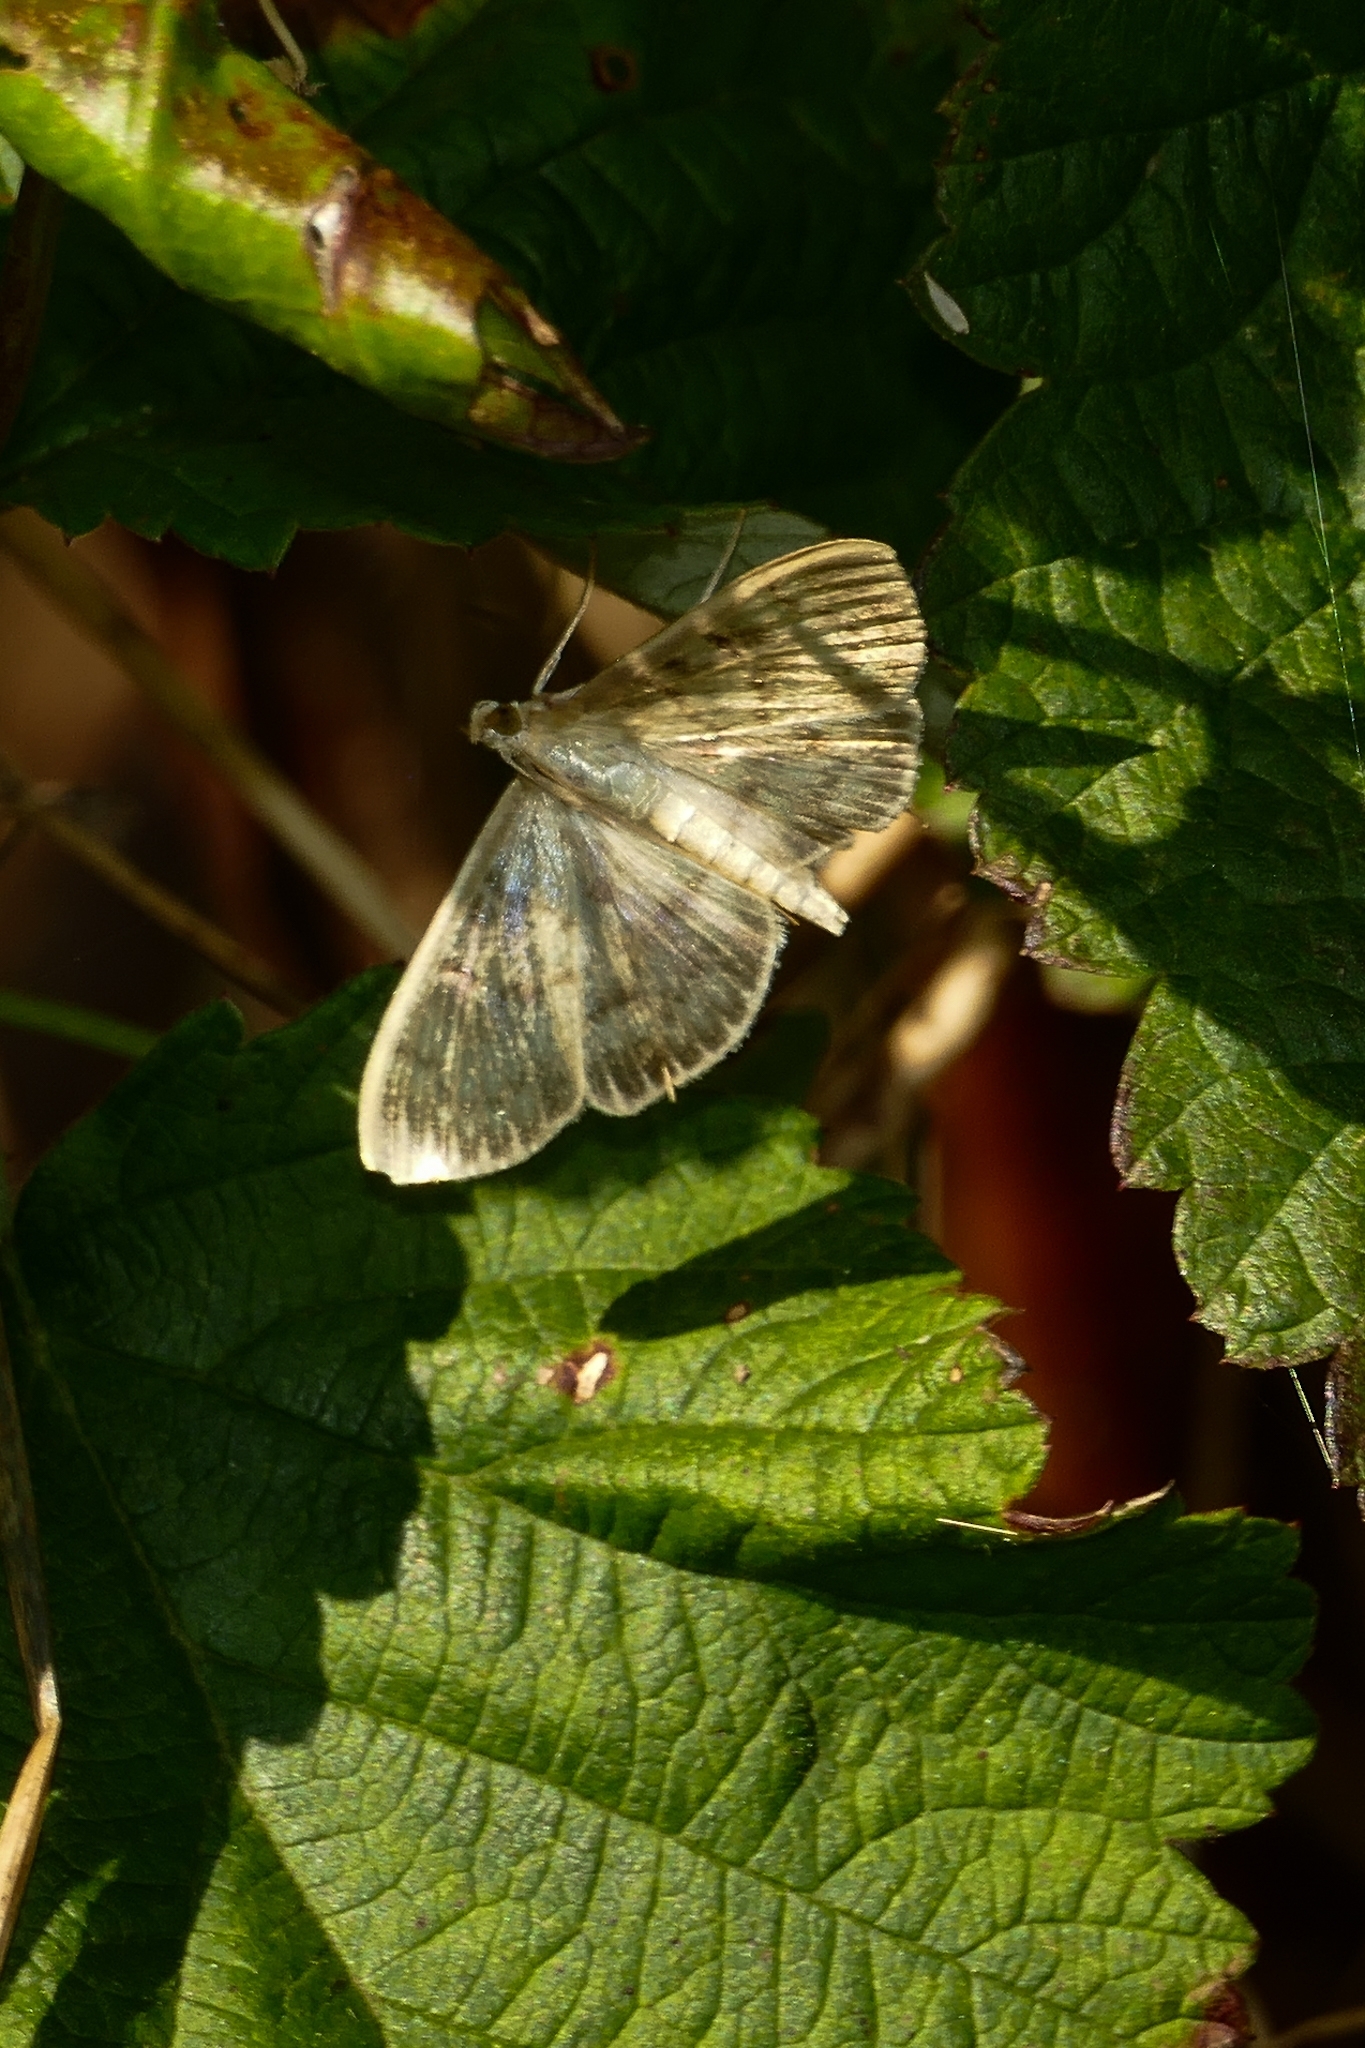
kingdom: Animalia
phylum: Arthropoda
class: Insecta
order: Lepidoptera
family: Crambidae
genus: Patania
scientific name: Patania ruralis
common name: Mother of pearl
